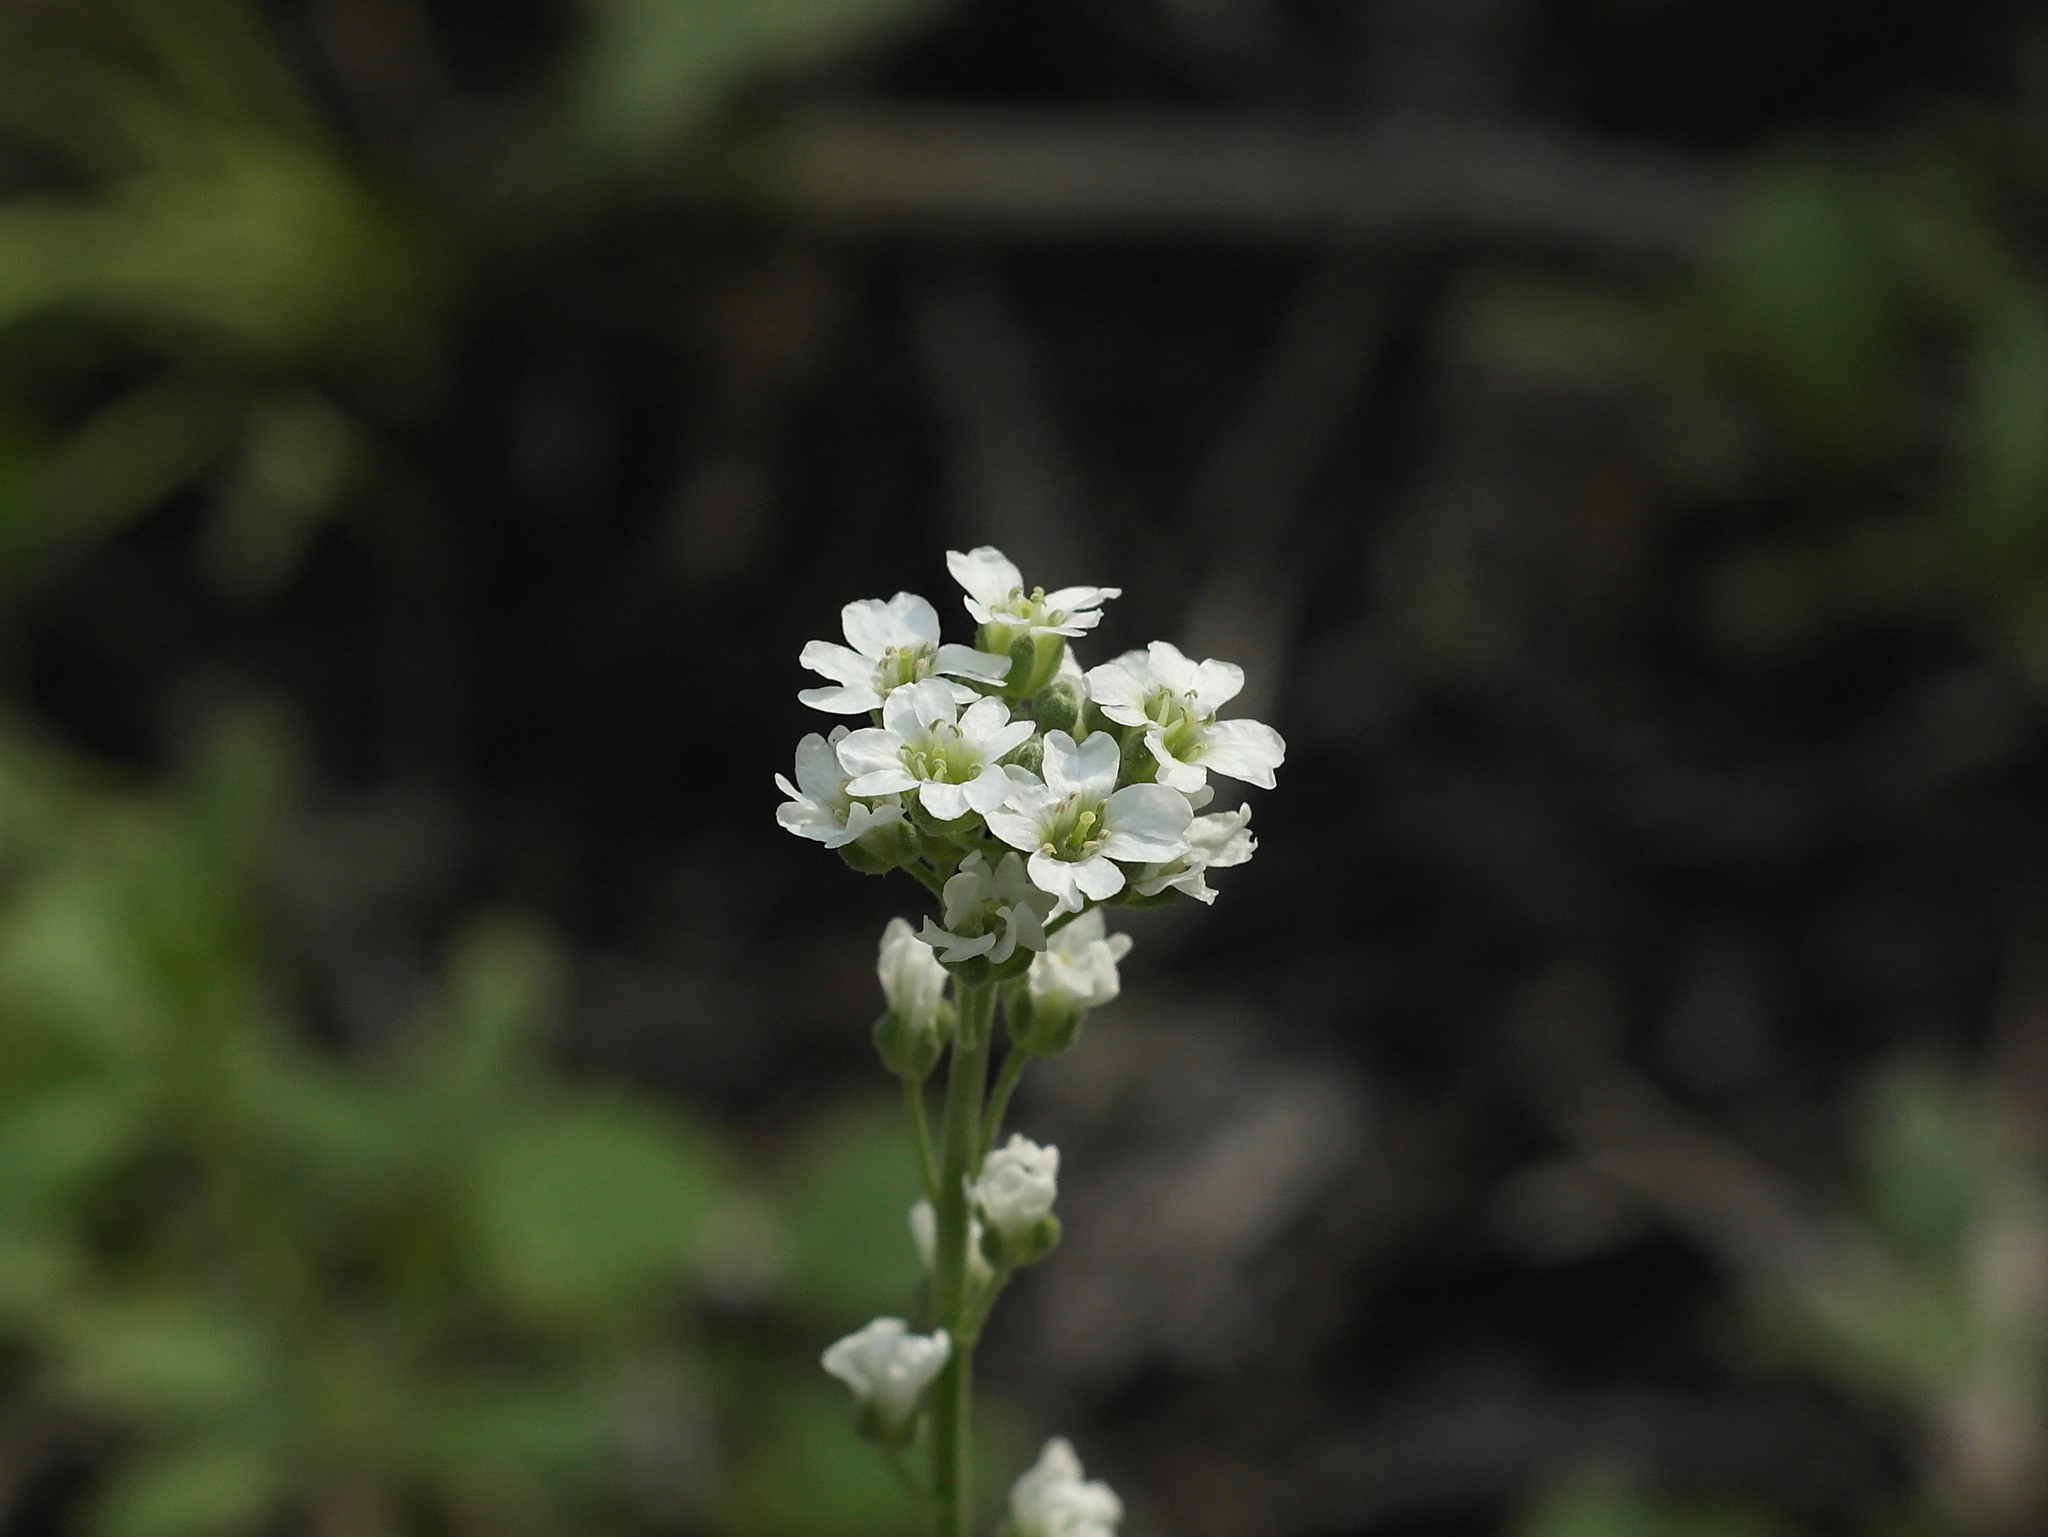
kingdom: Plantae
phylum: Tracheophyta
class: Magnoliopsida
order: Brassicales
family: Brassicaceae
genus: Berteroa
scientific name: Berteroa incana
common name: Hoary alison
